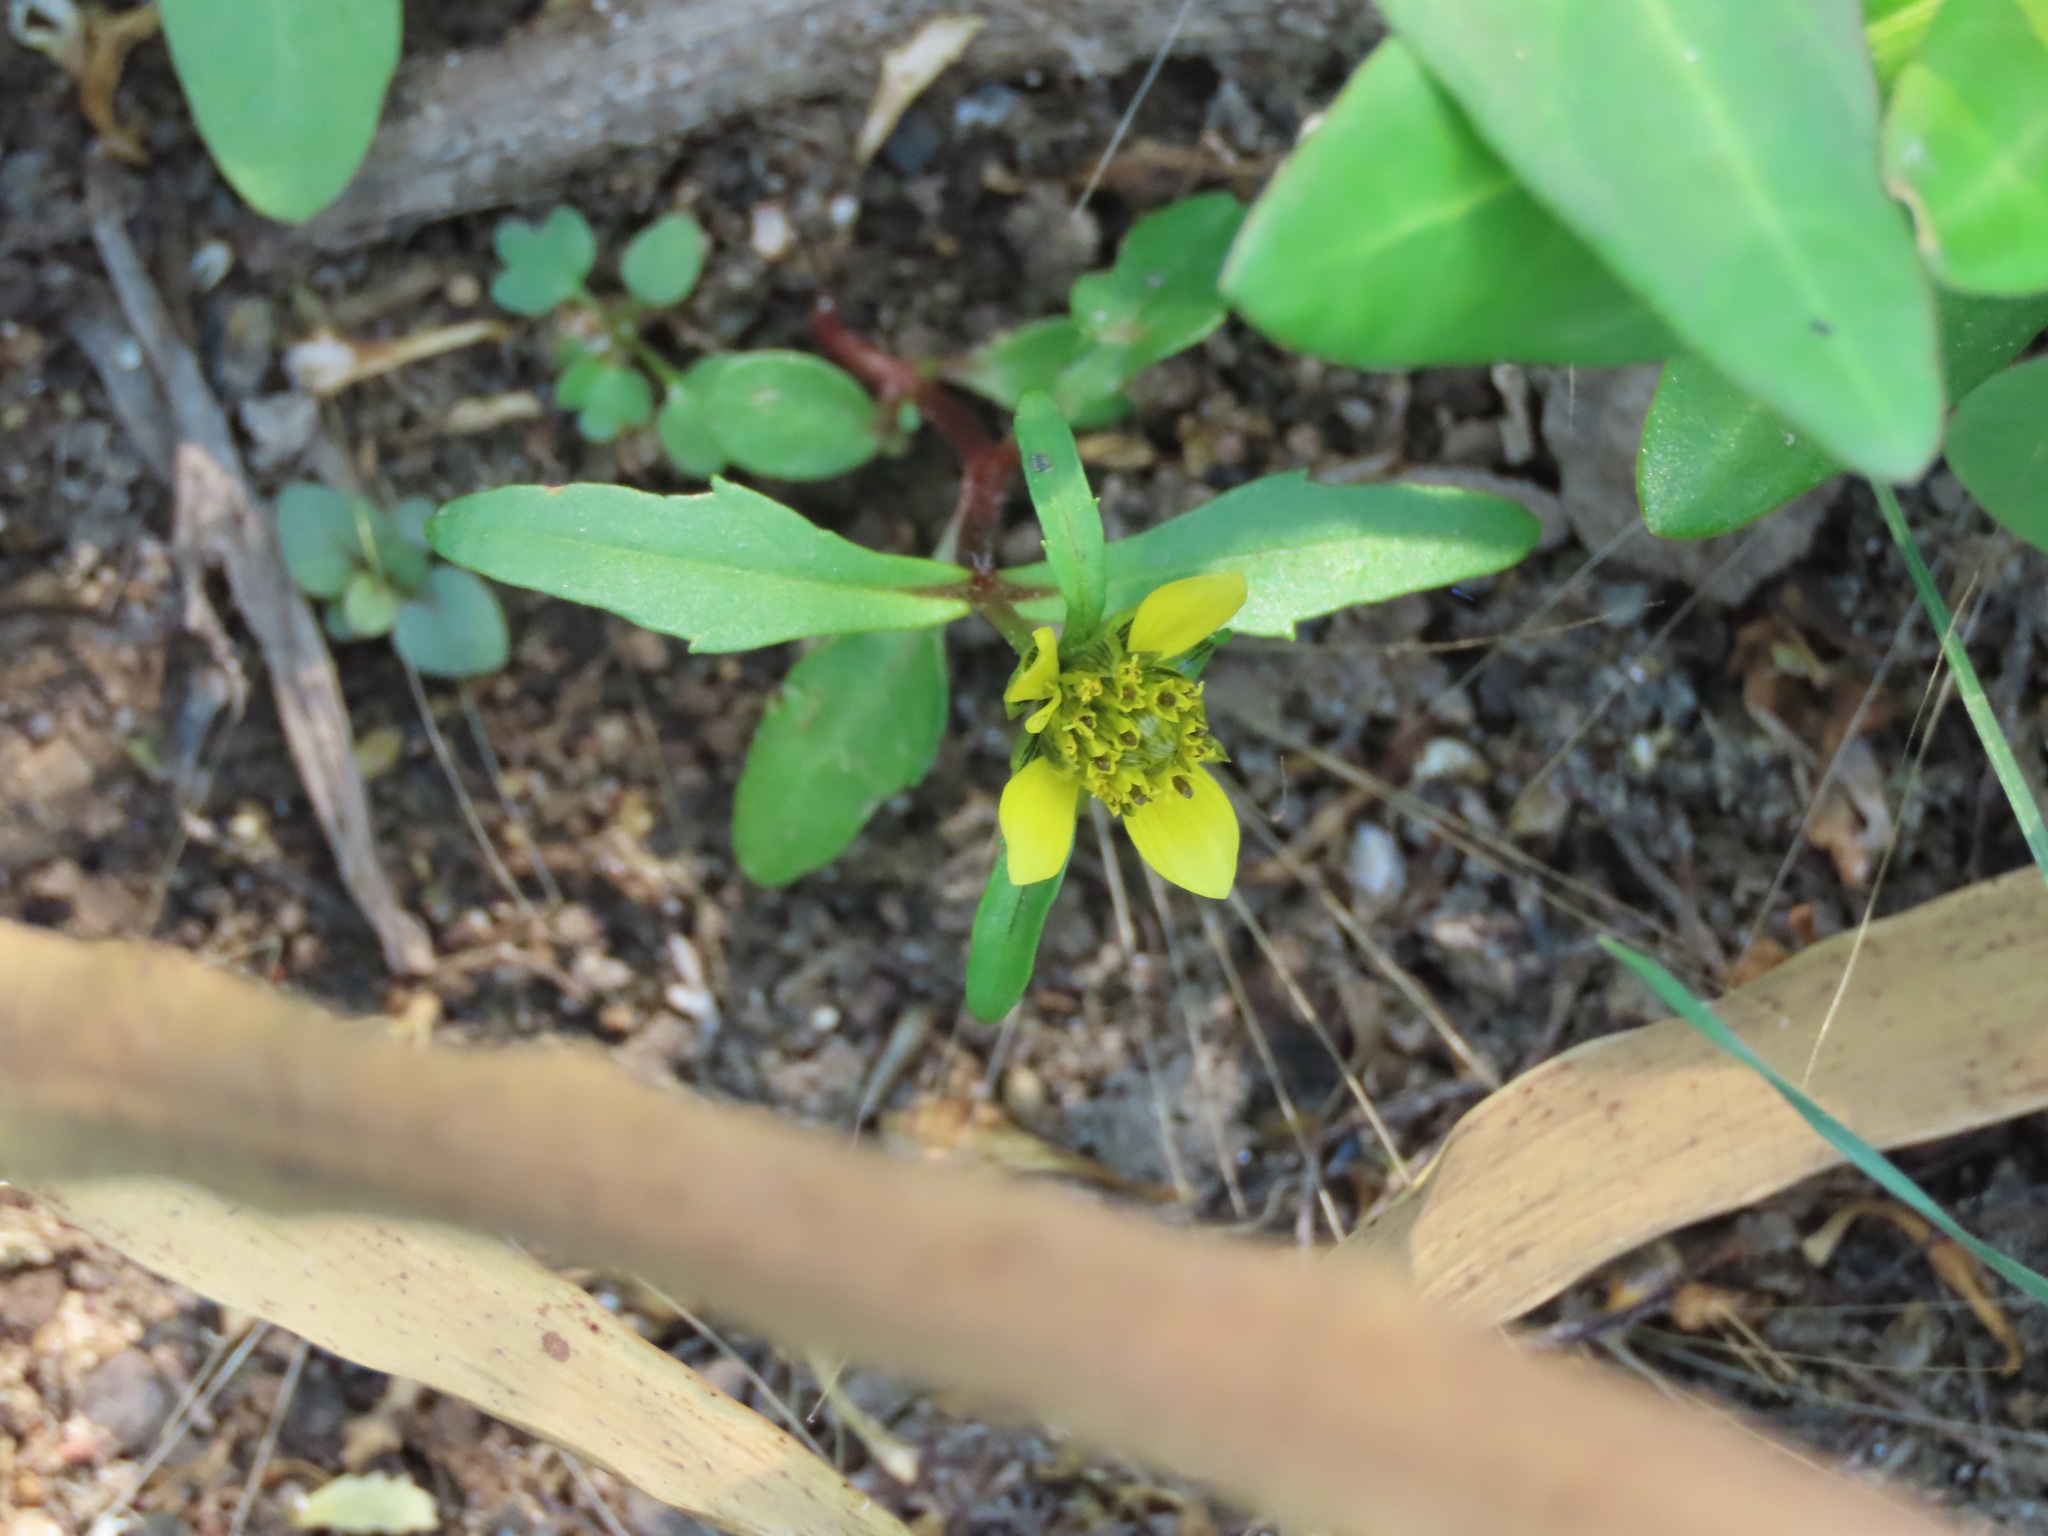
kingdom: Plantae
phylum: Tracheophyta
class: Magnoliopsida
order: Asterales
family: Asteraceae
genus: Bidens
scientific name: Bidens cernua
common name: Nodding bur-marigold
